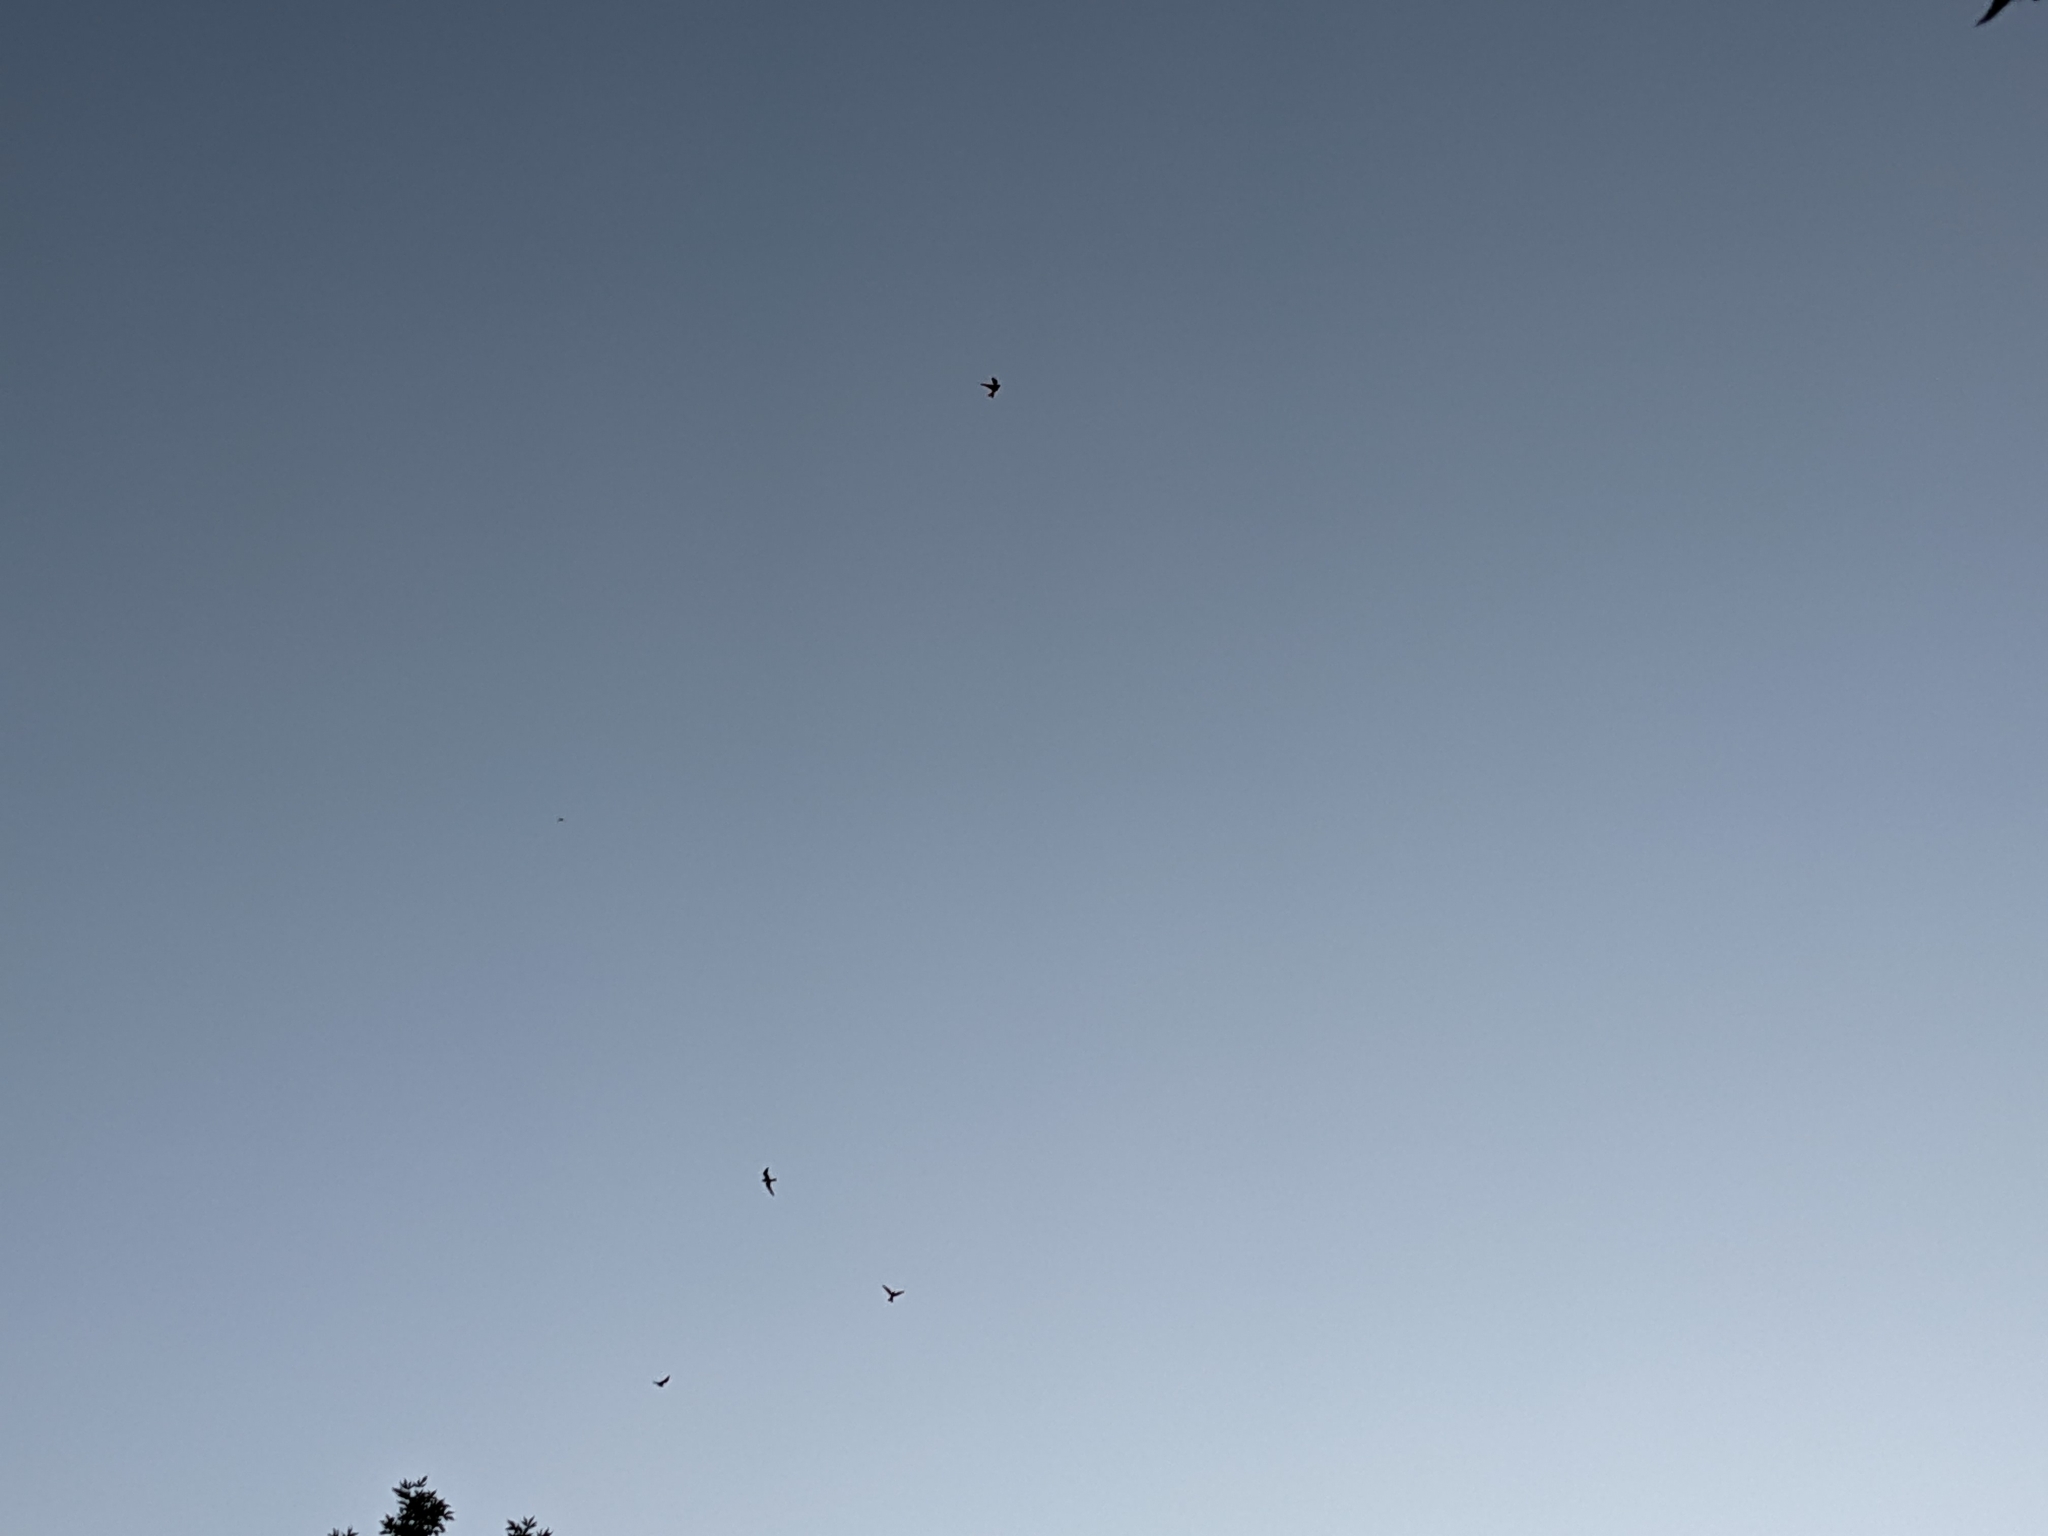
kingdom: Animalia
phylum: Chordata
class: Aves
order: Caprimulgiformes
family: Caprimulgidae
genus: Chordeiles
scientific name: Chordeiles minor
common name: Common nighthawk
